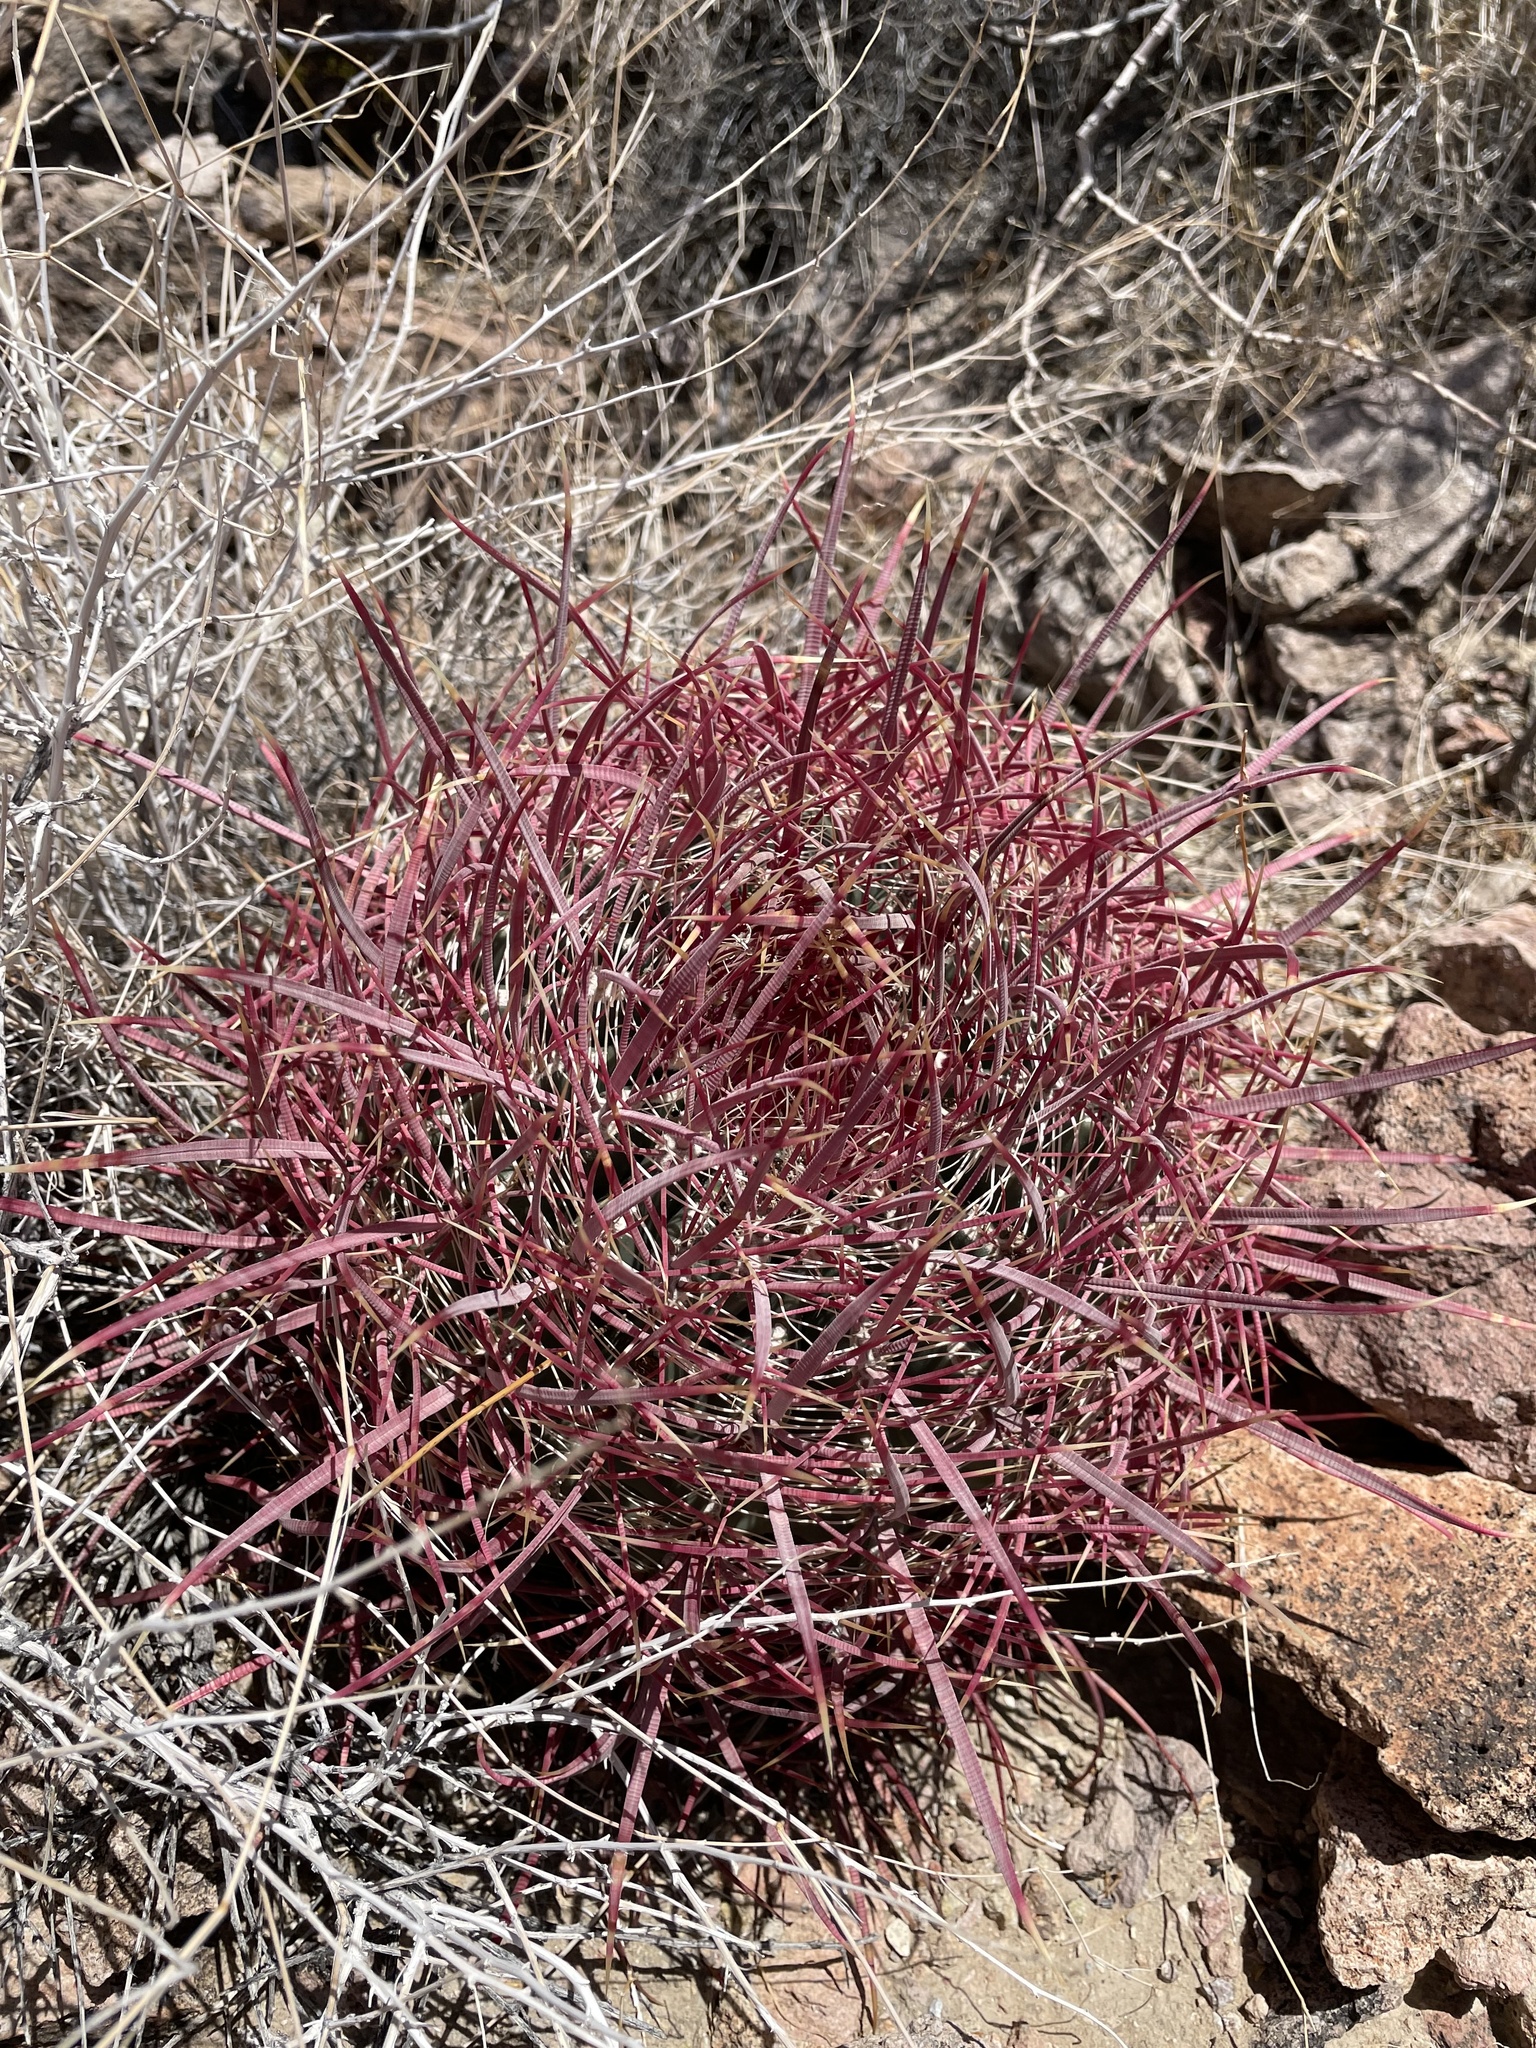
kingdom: Plantae
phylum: Tracheophyta
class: Magnoliopsida
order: Caryophyllales
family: Cactaceae
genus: Ferocactus
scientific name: Ferocactus cylindraceus
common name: California barrel cactus
